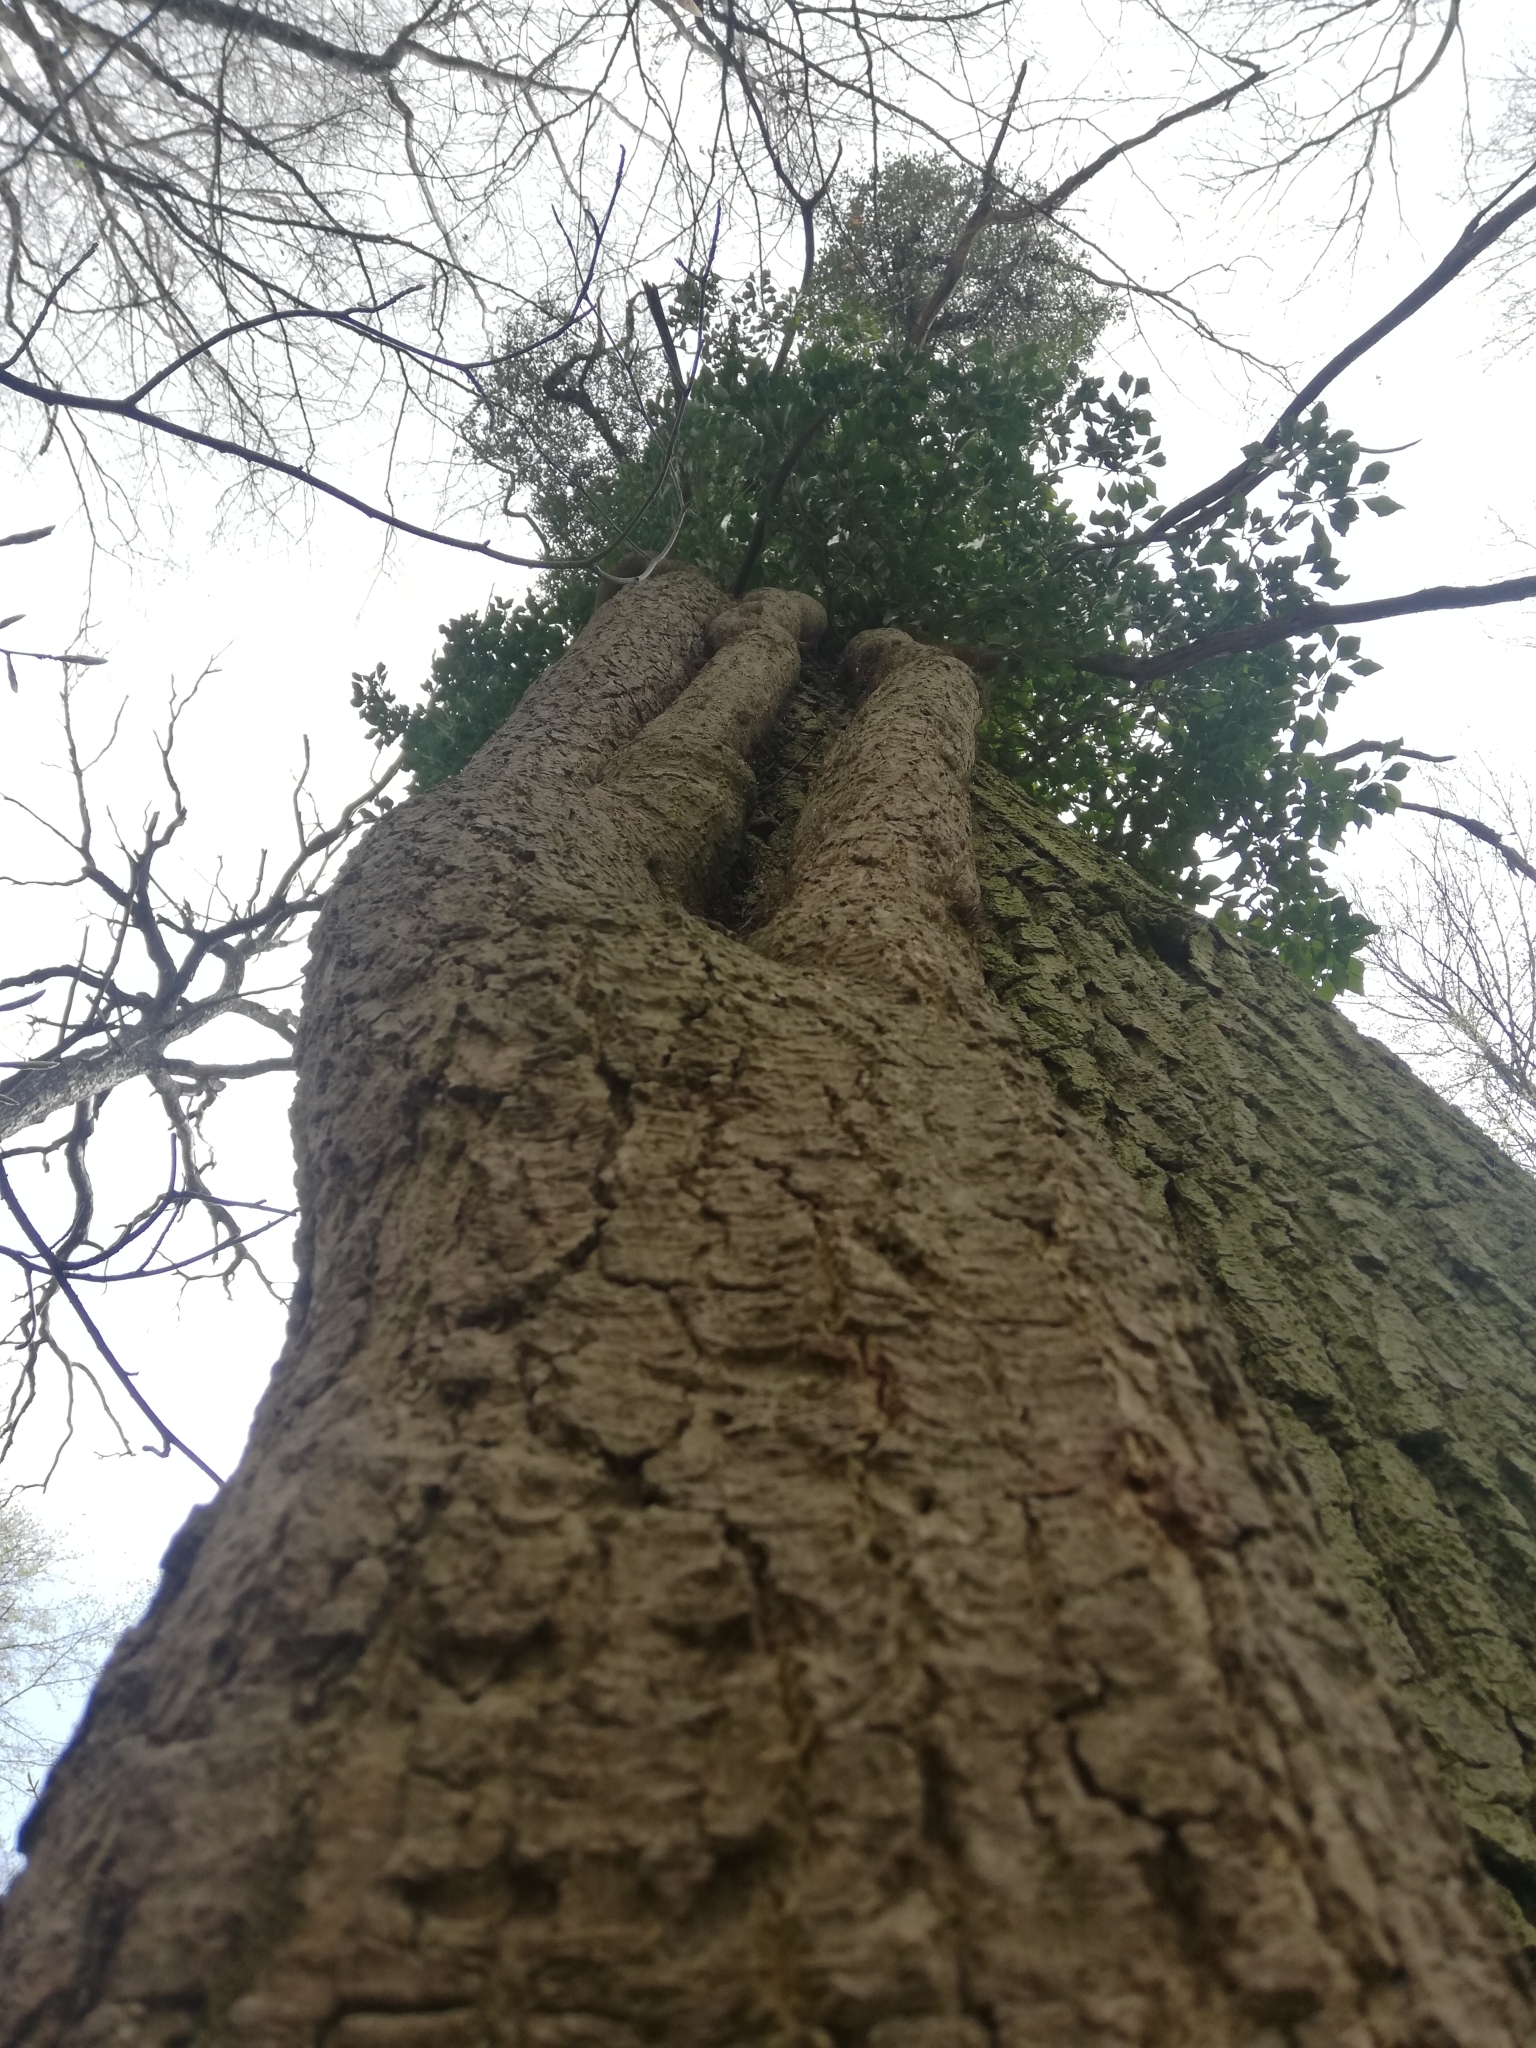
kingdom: Plantae
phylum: Tracheophyta
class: Magnoliopsida
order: Apiales
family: Araliaceae
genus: Hedera
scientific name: Hedera helix
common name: Ivy
